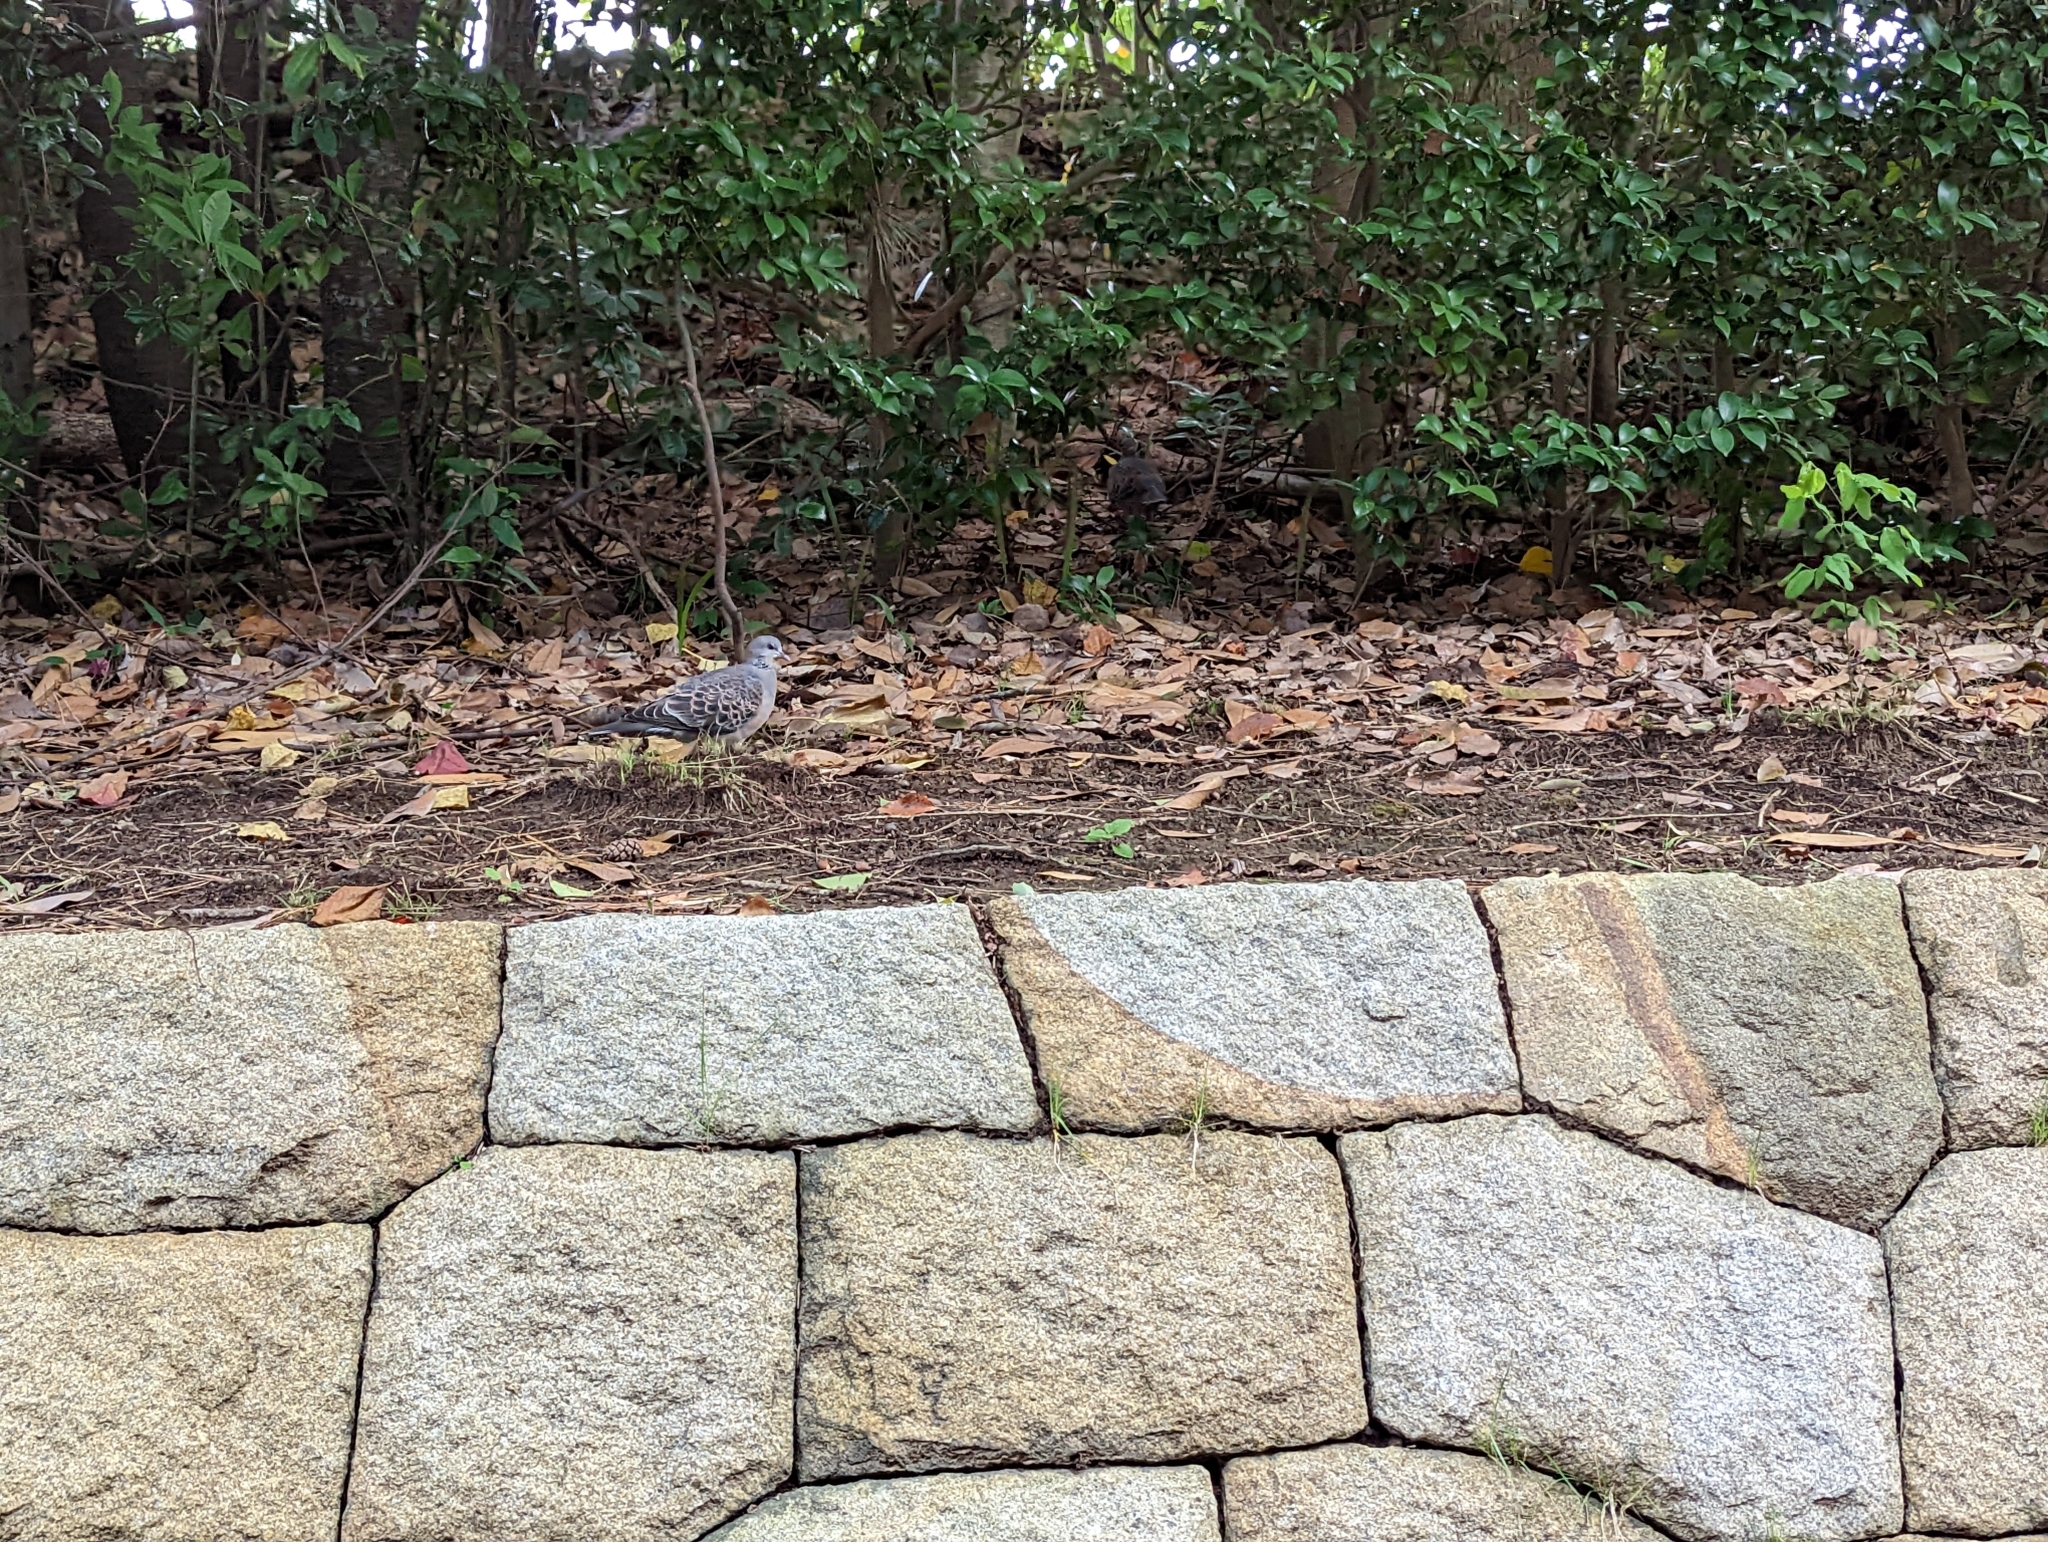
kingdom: Animalia
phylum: Chordata
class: Aves
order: Columbiformes
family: Columbidae
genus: Streptopelia
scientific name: Streptopelia orientalis
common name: Oriental turtle dove
